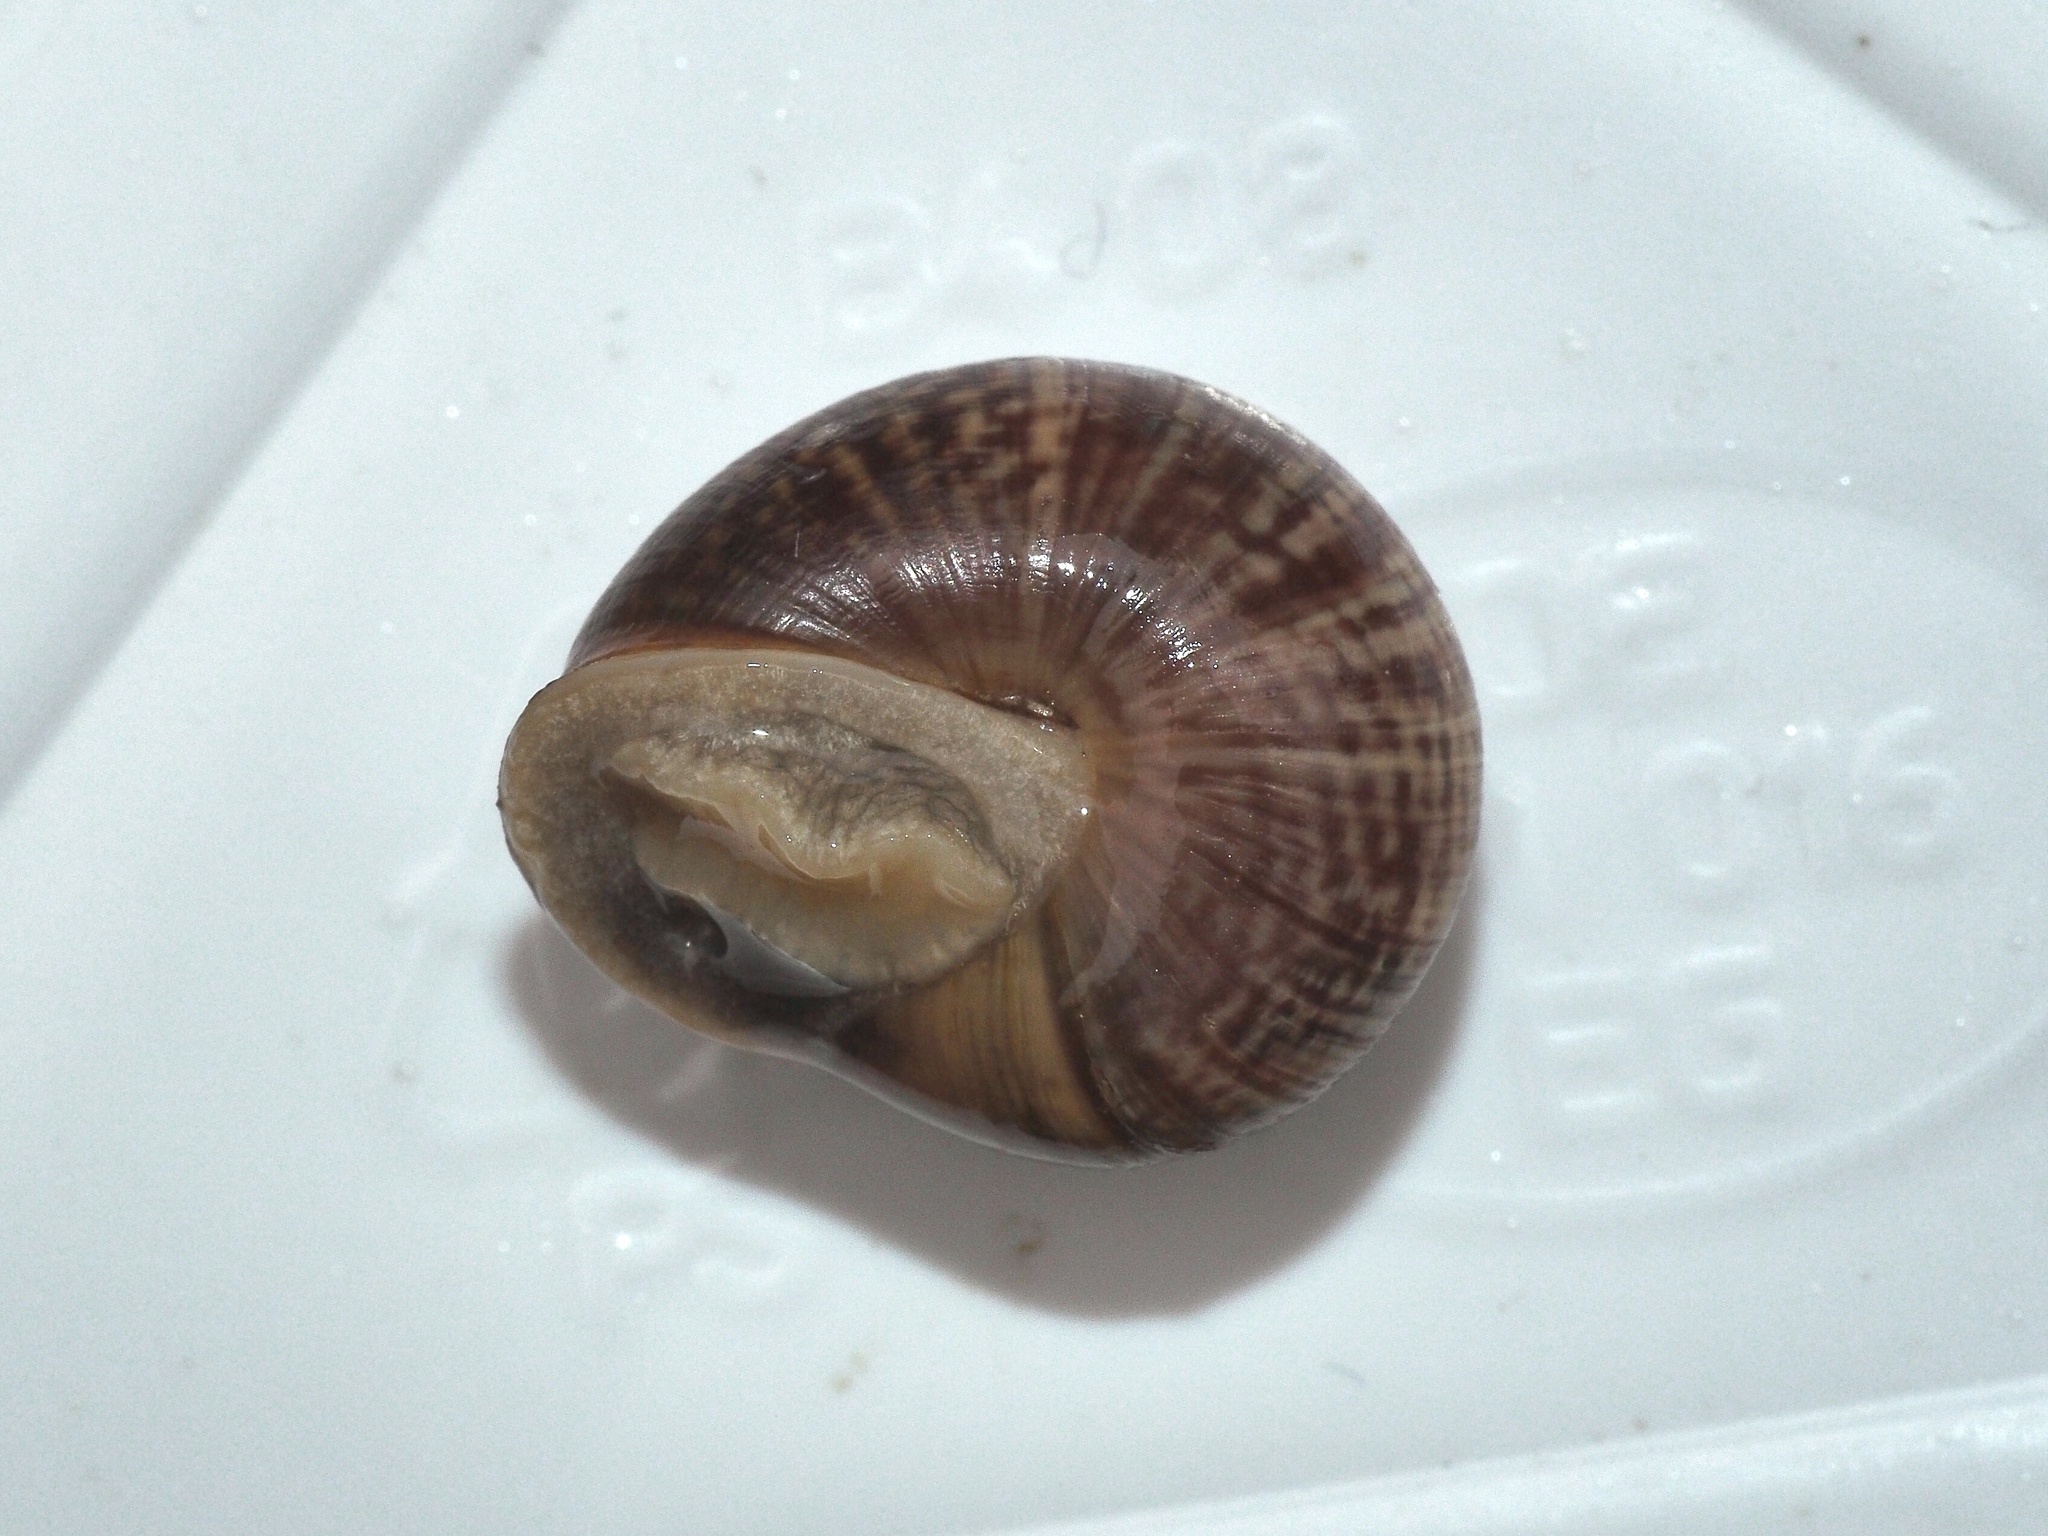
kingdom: Animalia
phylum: Mollusca
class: Gastropoda
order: Stylommatophora
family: Helicidae
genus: Arianta
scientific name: Arianta arbustorum
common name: Copse snail
